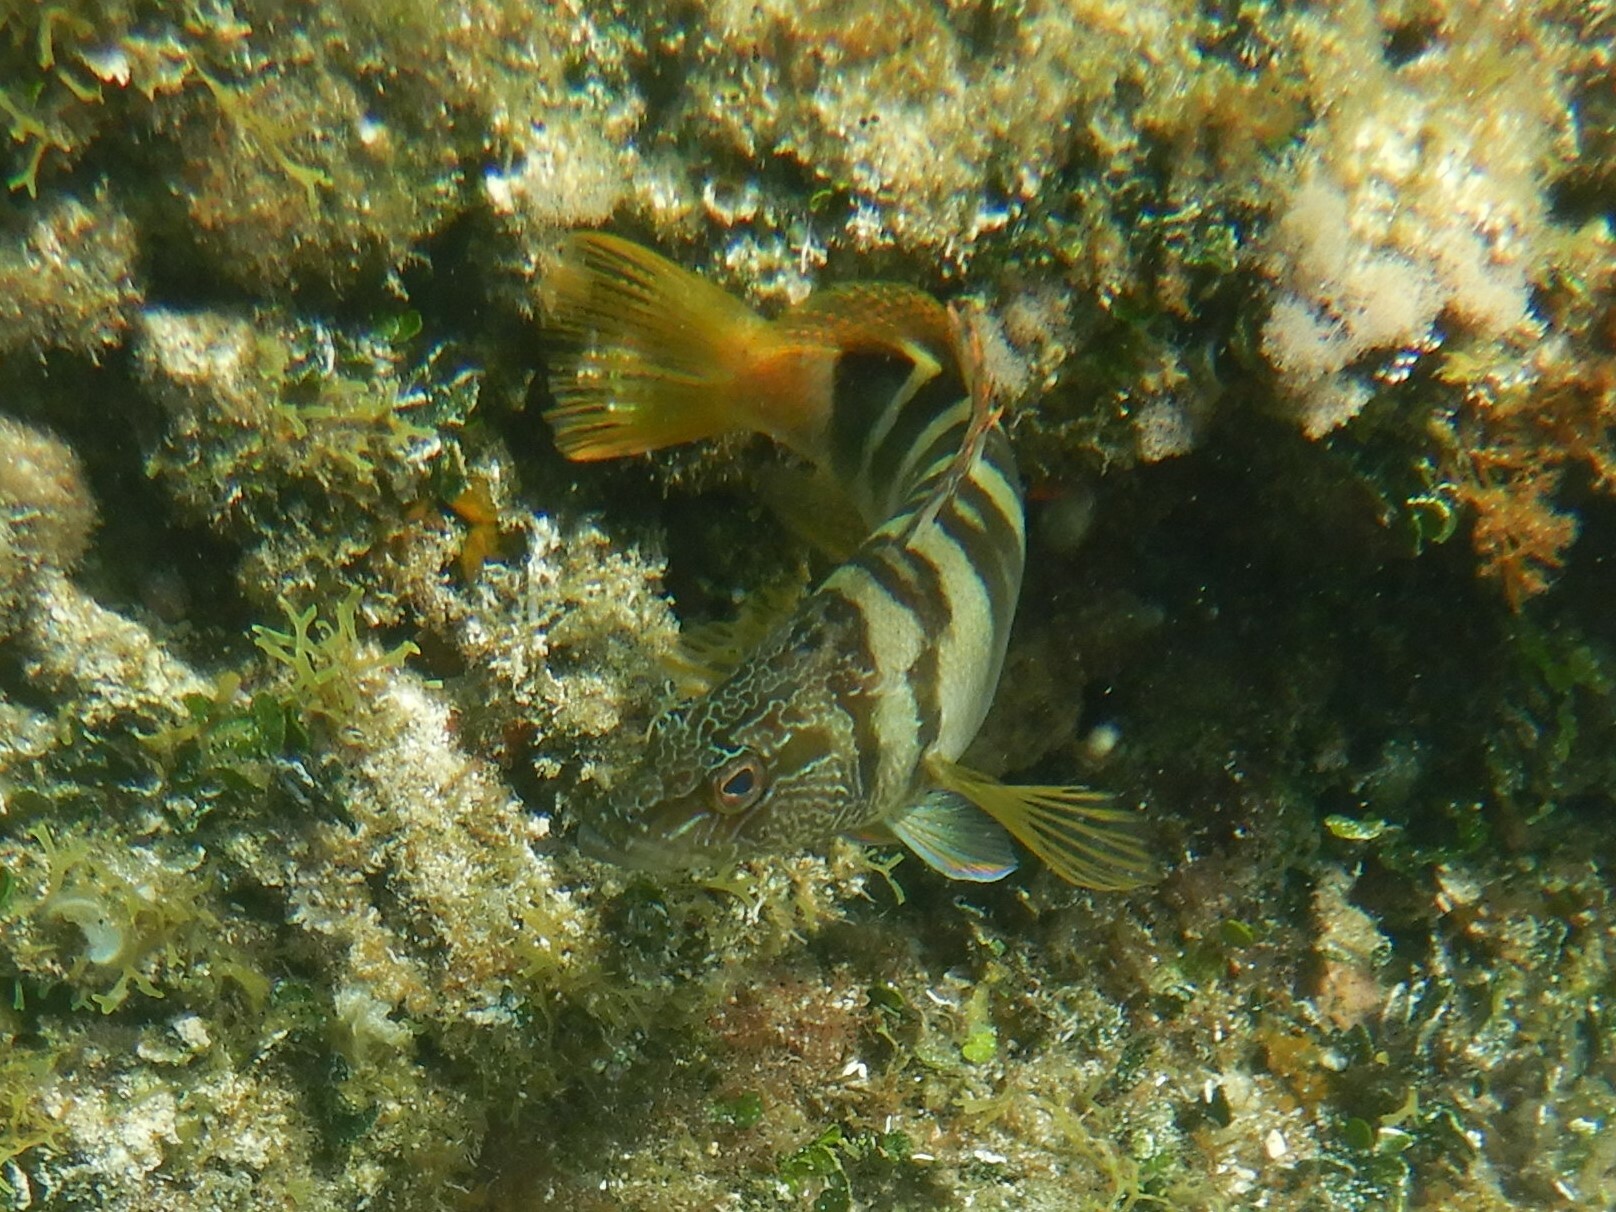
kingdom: Animalia
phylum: Chordata
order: Perciformes
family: Serranidae
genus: Serranus
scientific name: Serranus scriba
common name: Painted comber
